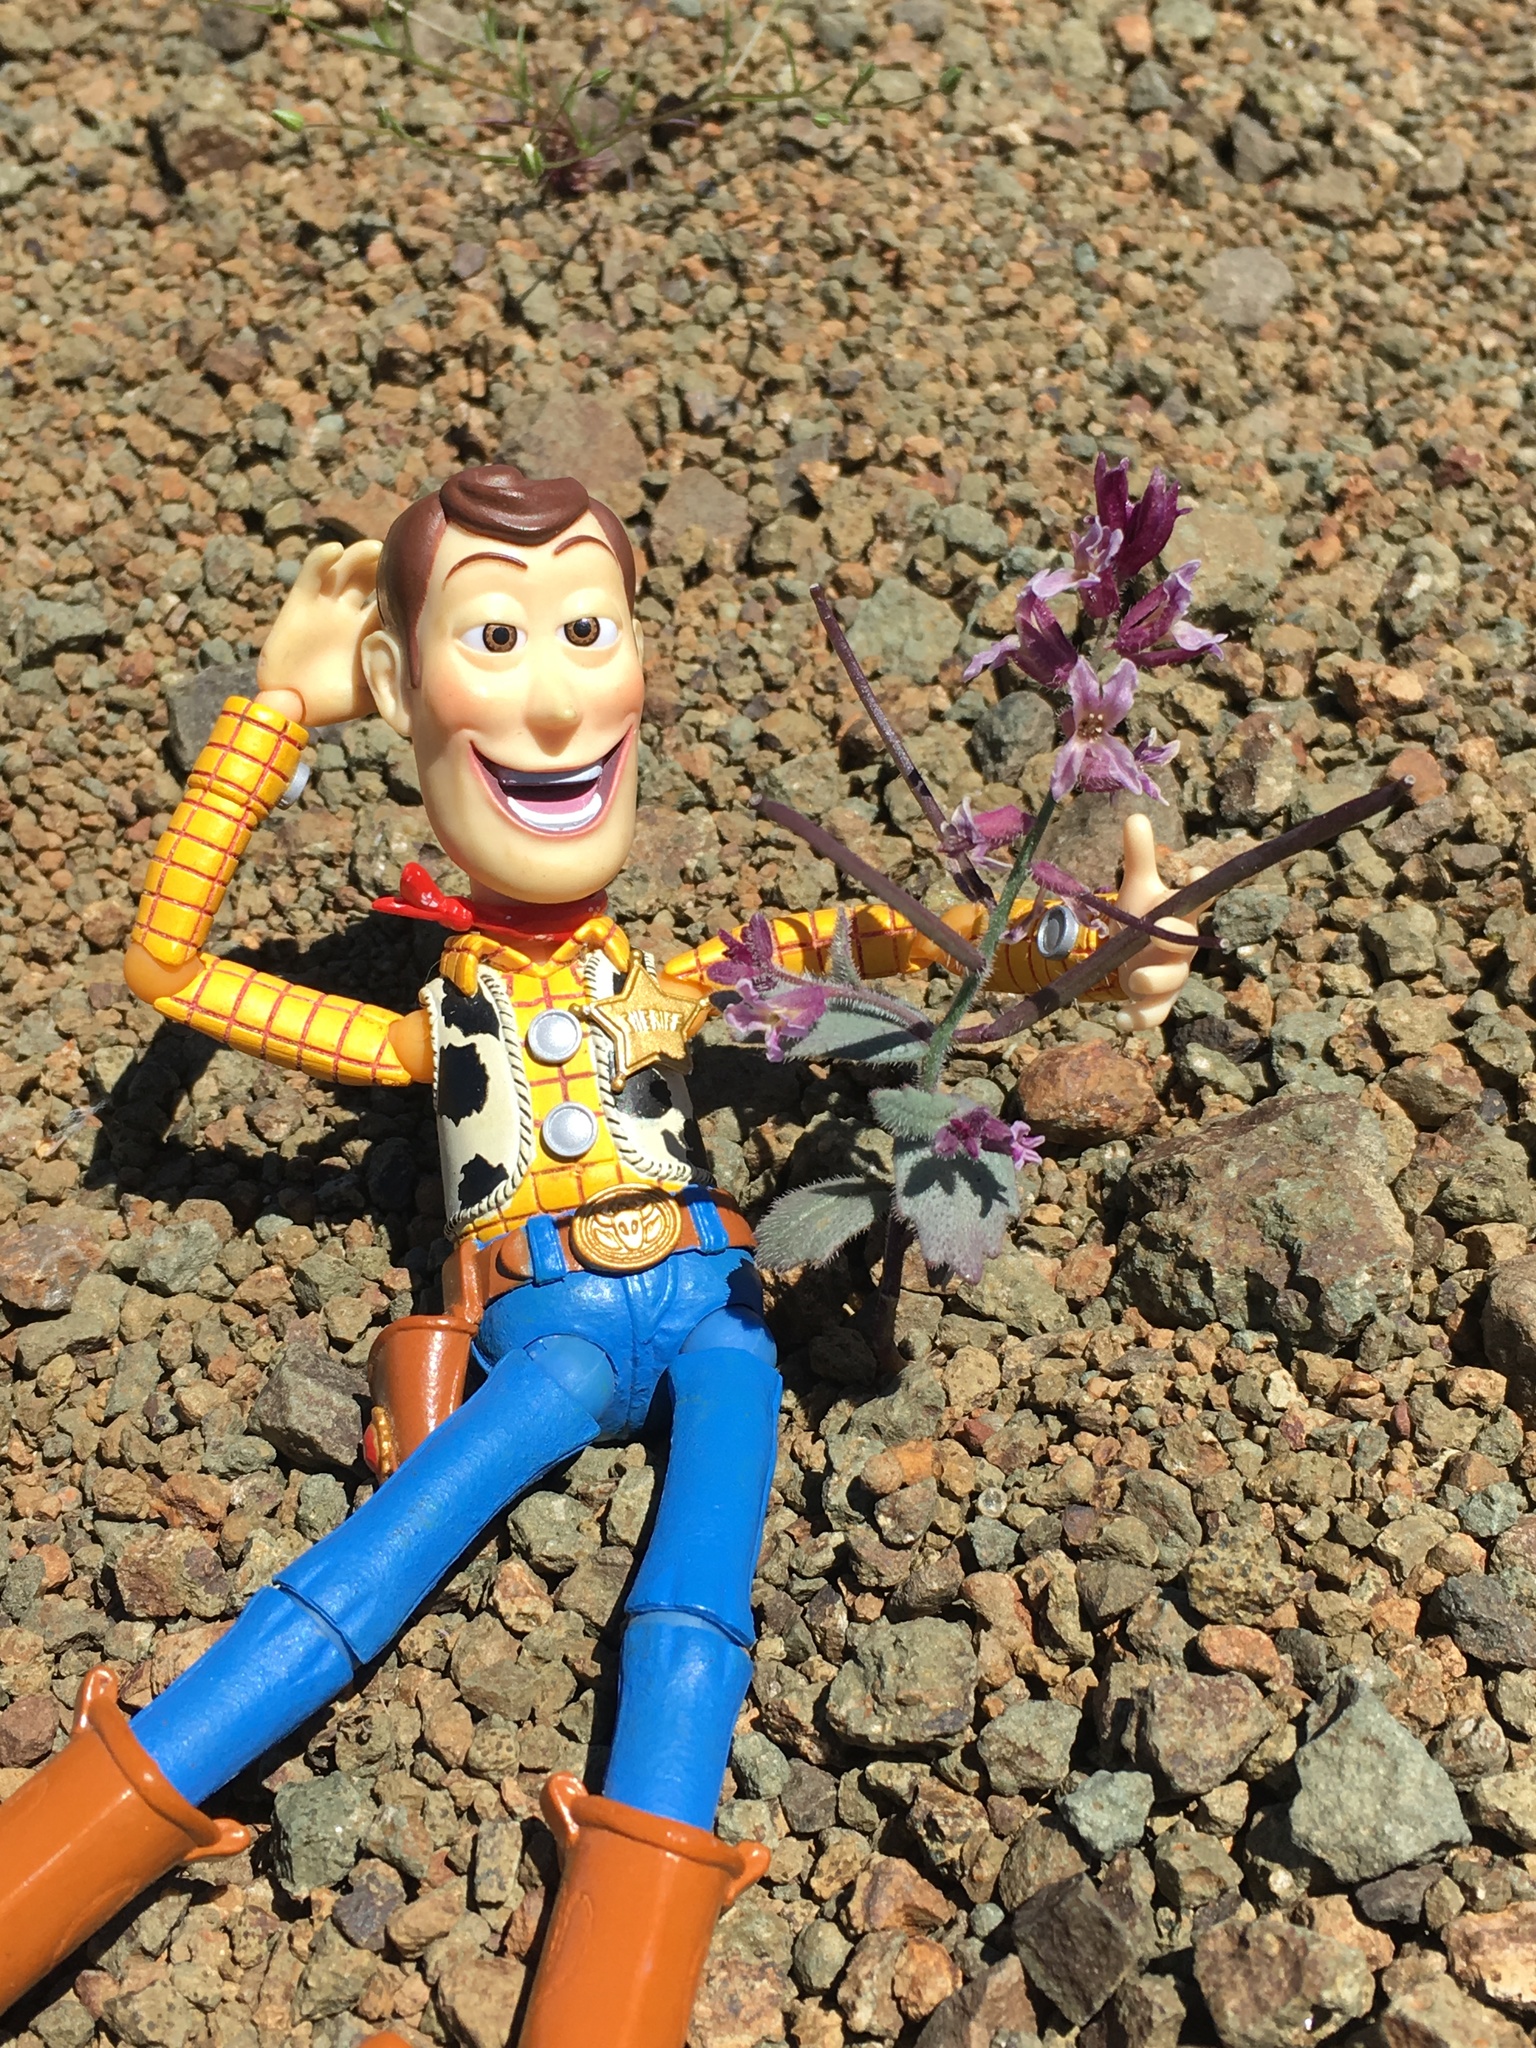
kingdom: Plantae
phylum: Tracheophyta
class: Magnoliopsida
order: Brassicales
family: Brassicaceae
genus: Streptanthus
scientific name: Streptanthus hispidus
